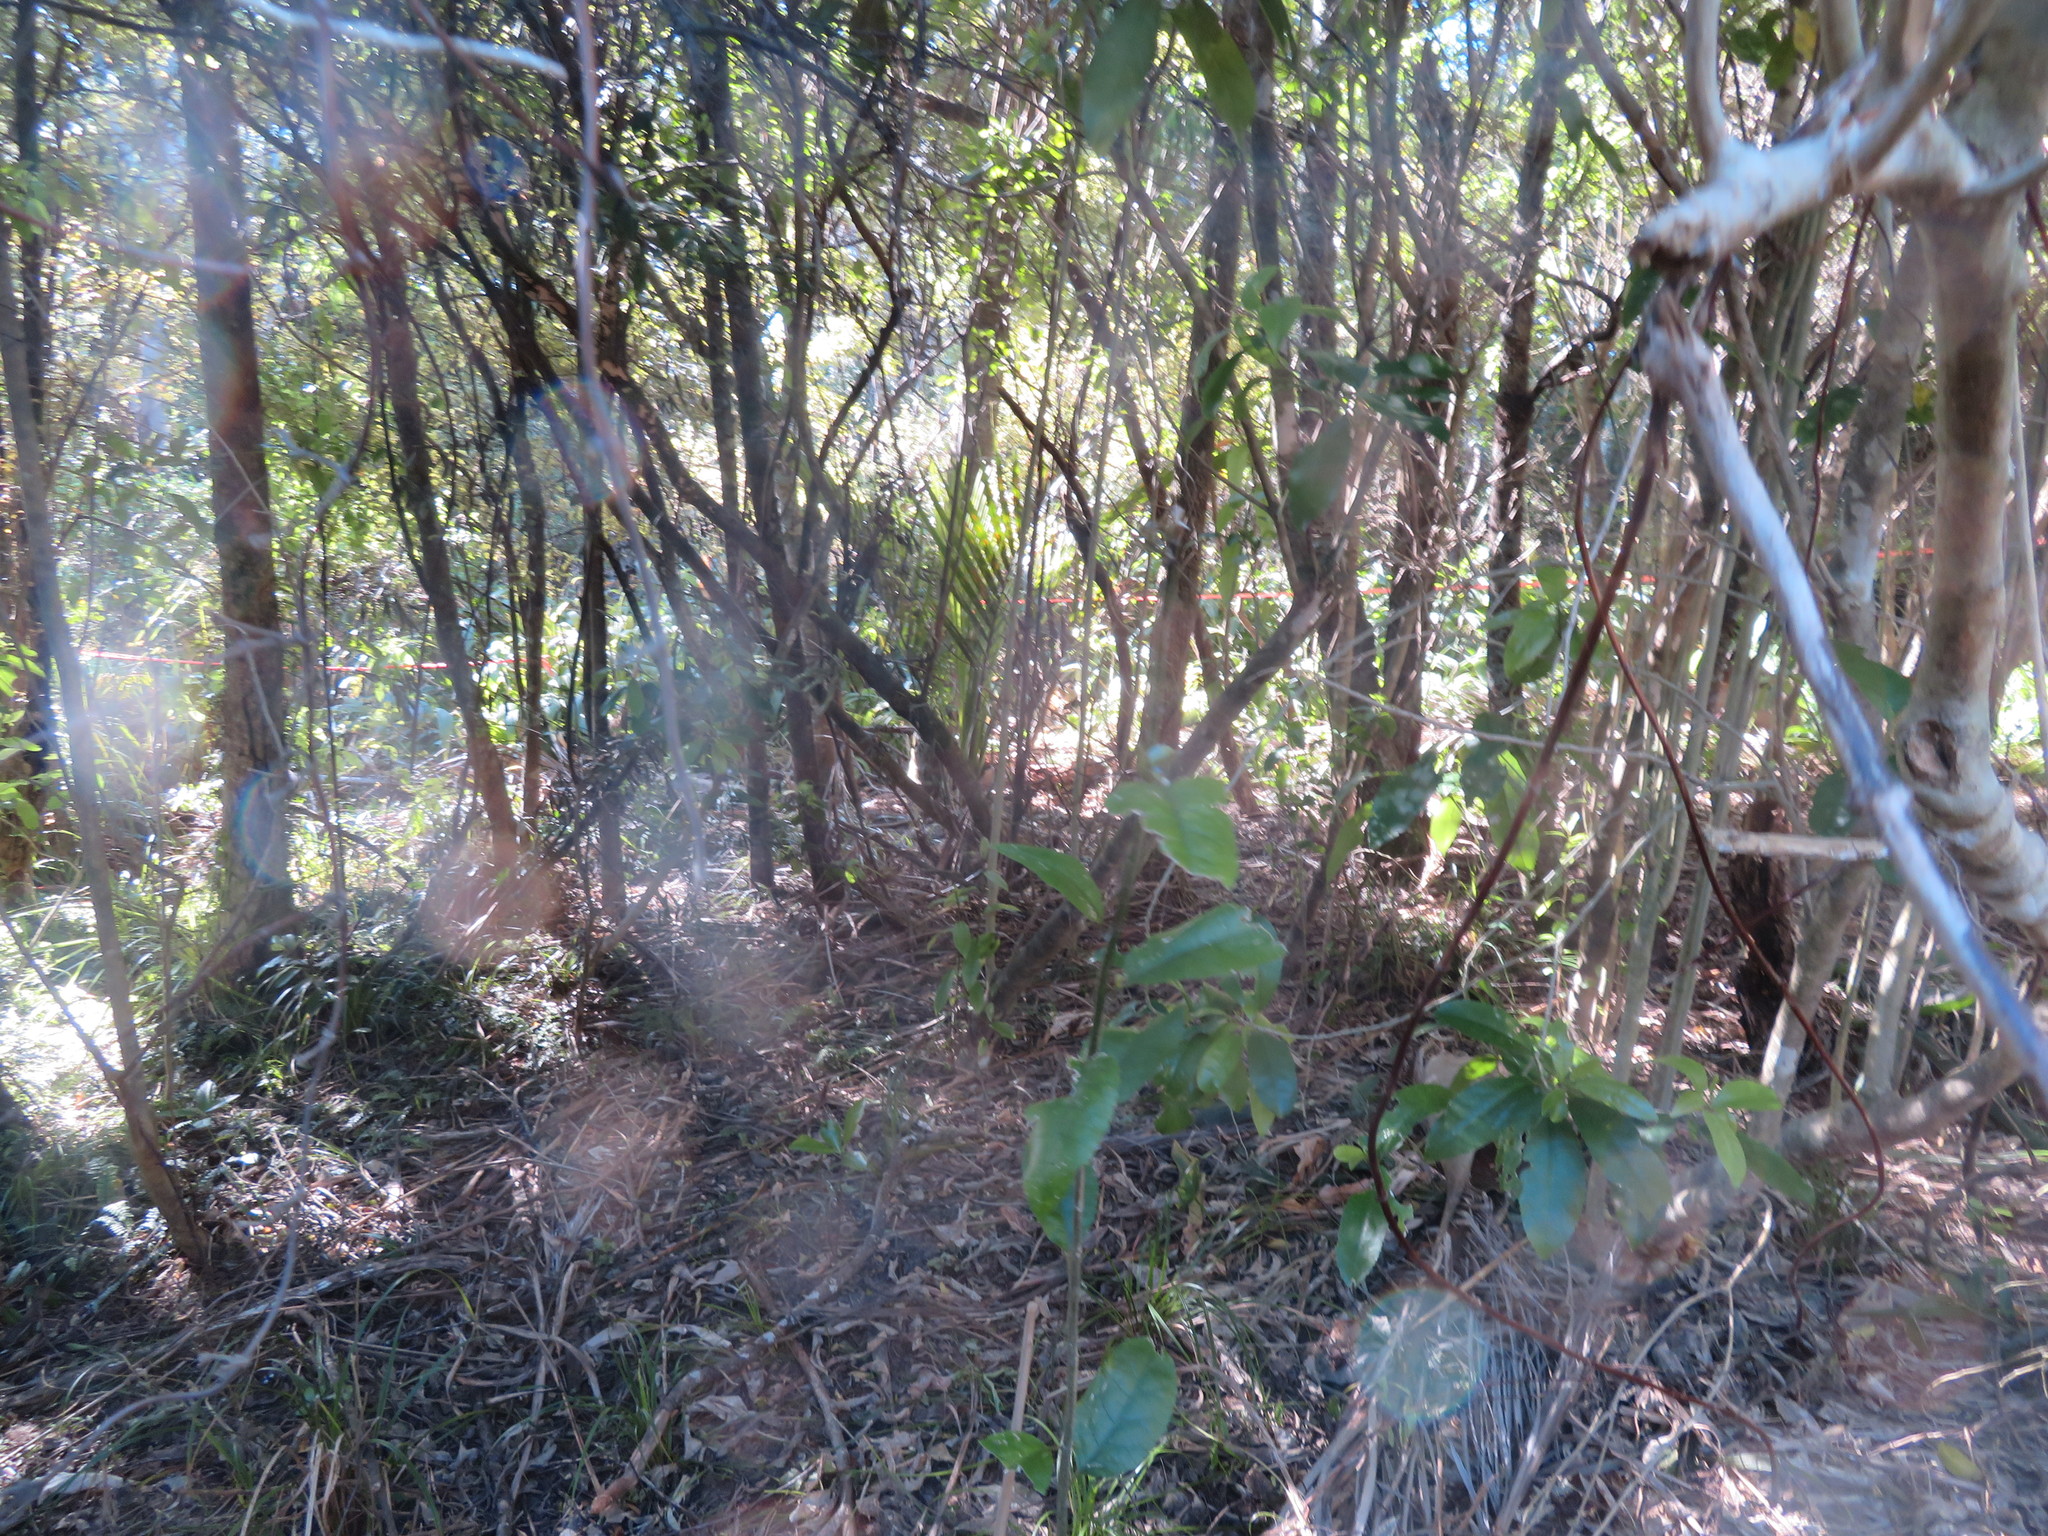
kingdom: Plantae
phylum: Tracheophyta
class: Magnoliopsida
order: Malpighiales
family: Violaceae
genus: Melicytus
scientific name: Melicytus ramiflorus
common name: Mahoe
